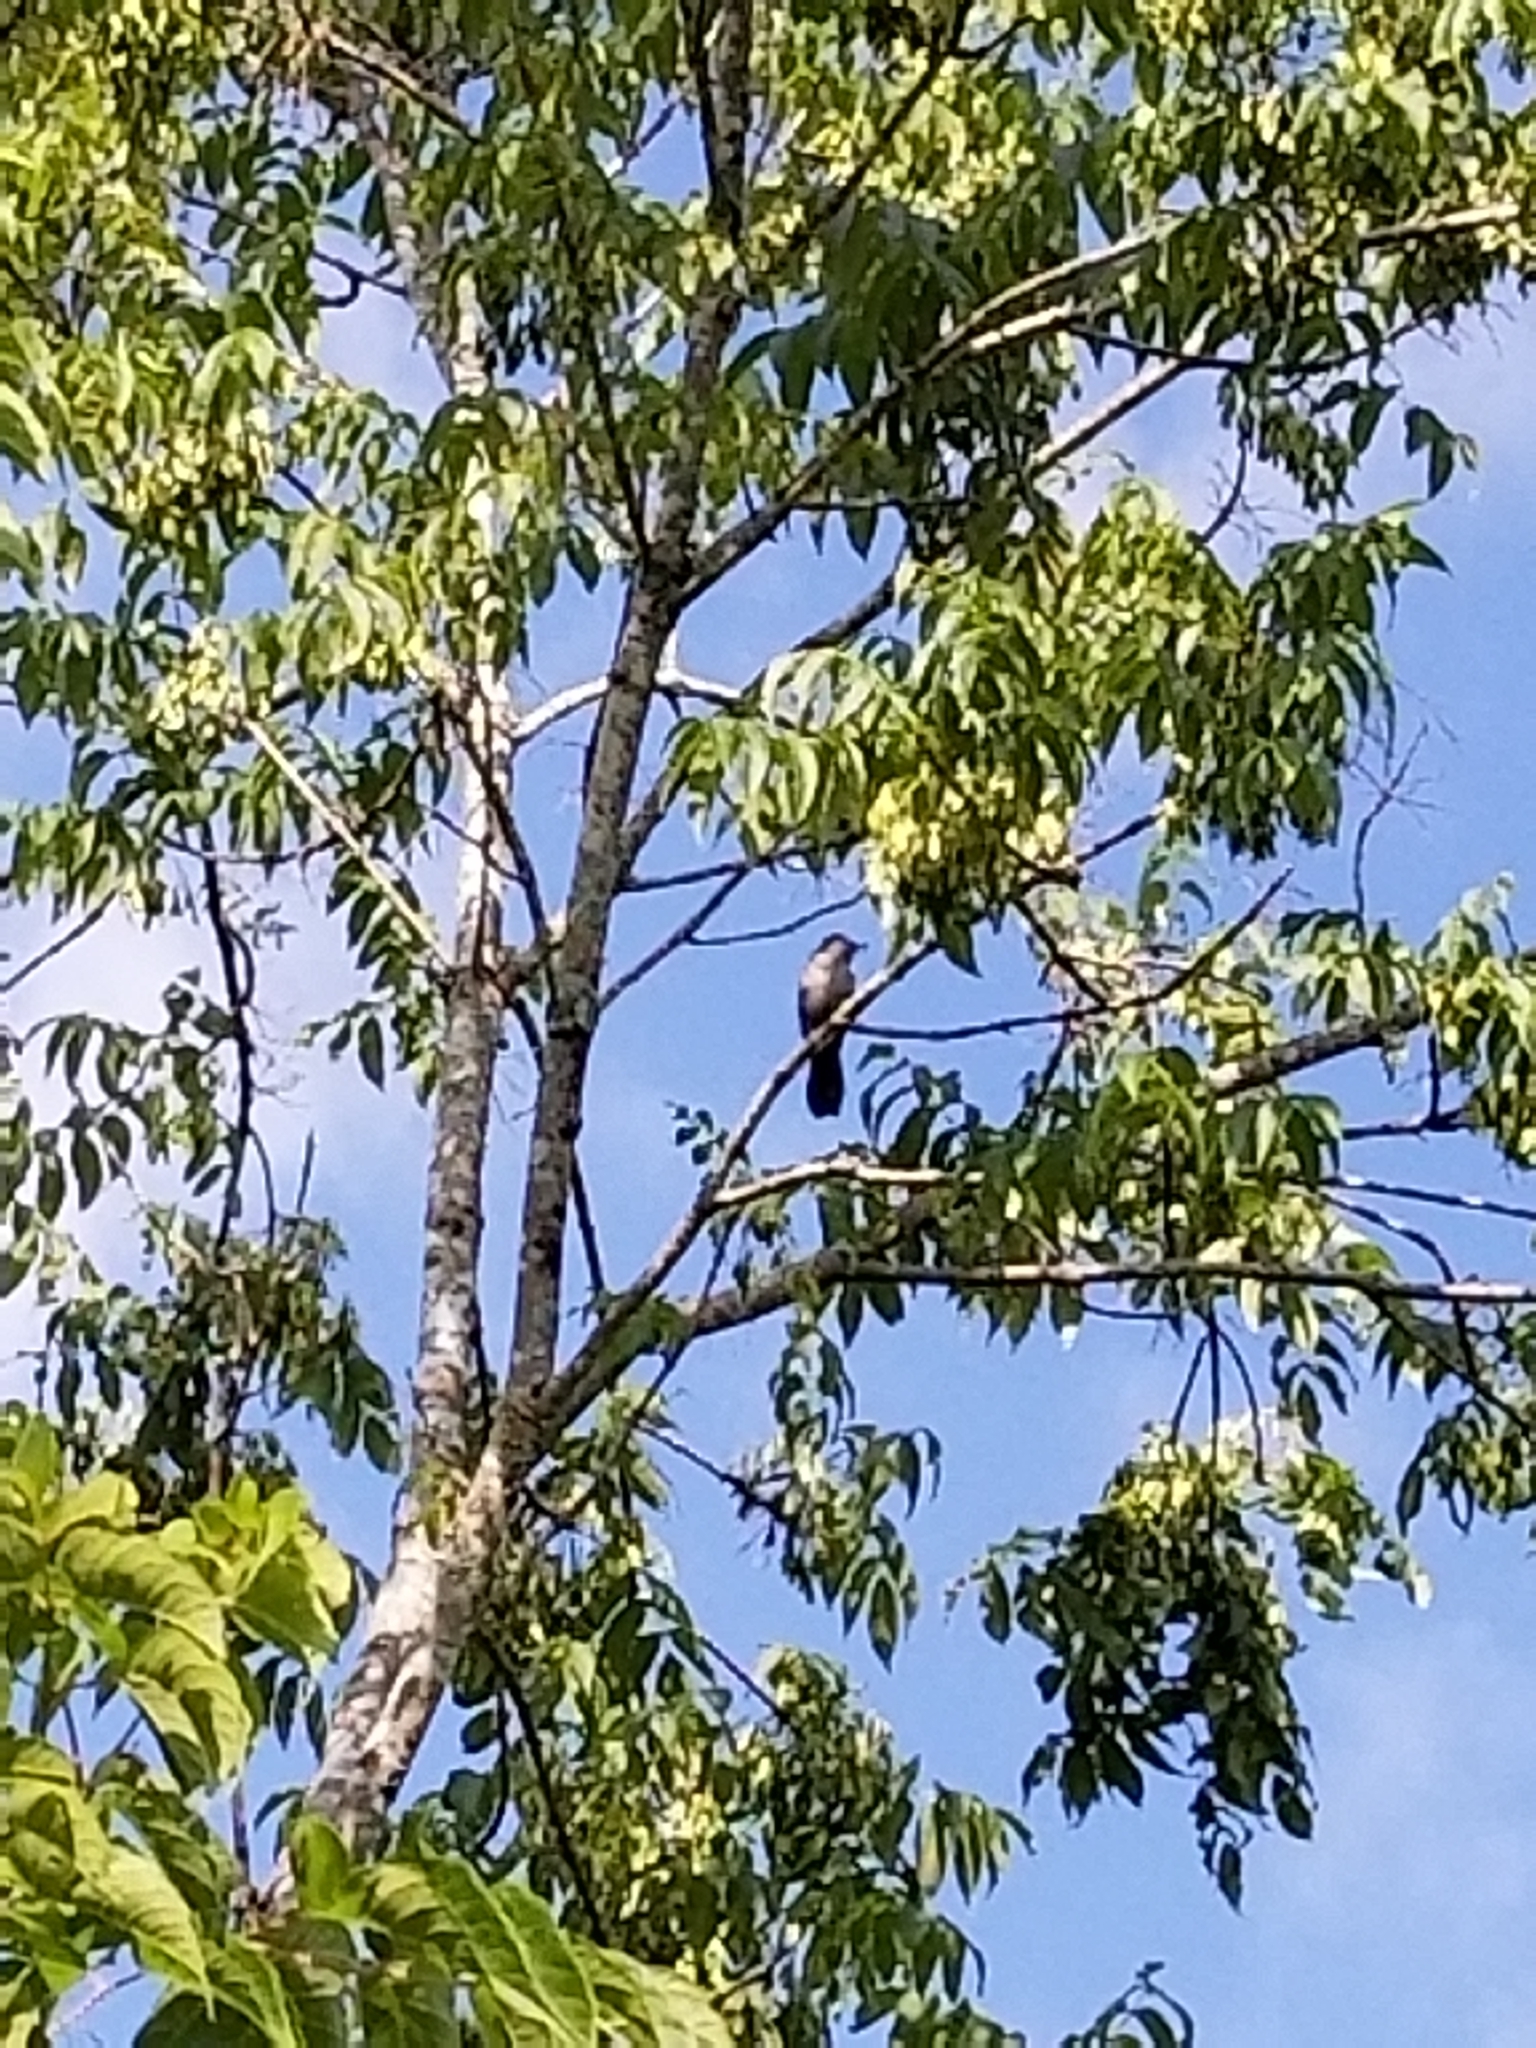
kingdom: Animalia
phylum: Chordata
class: Aves
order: Passeriformes
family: Mimidae
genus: Dumetella
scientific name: Dumetella carolinensis
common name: Gray catbird
